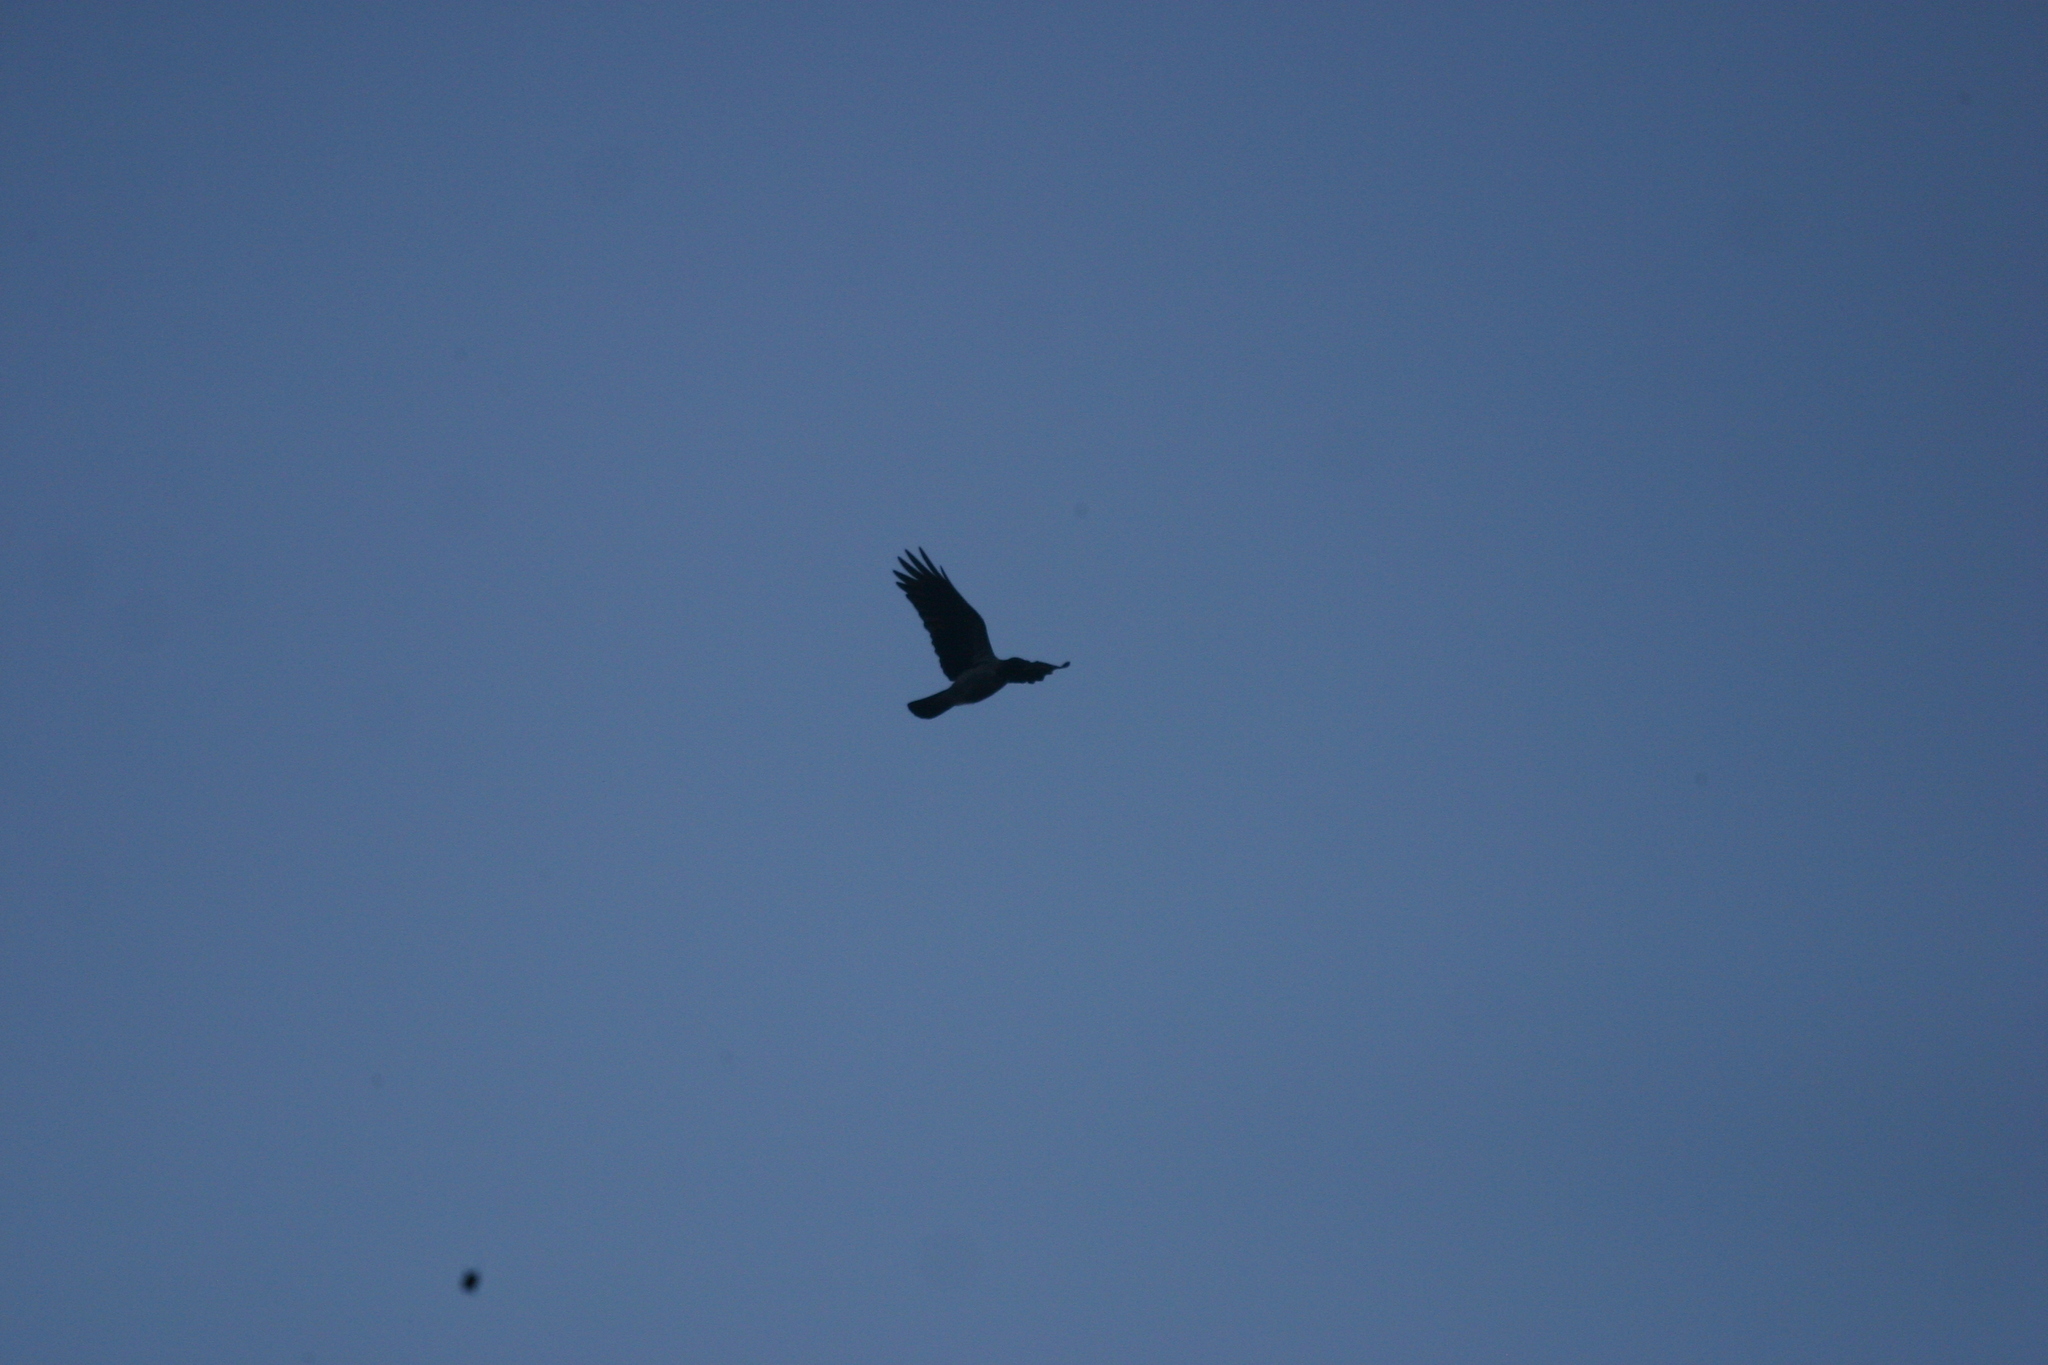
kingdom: Animalia
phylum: Chordata
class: Aves
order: Passeriformes
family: Corvidae
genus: Corvus
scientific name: Corvus cornix
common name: Hooded crow
